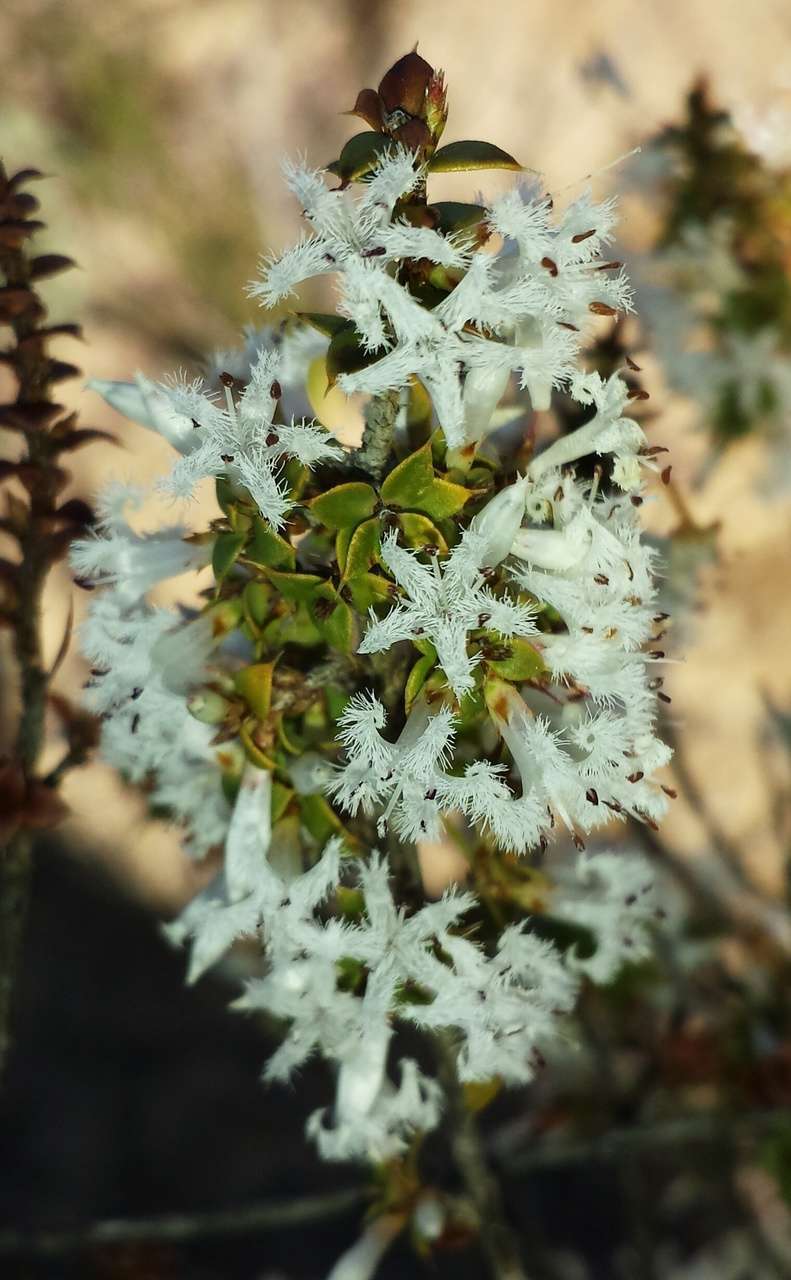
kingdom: Plantae
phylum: Tracheophyta
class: Magnoliopsida
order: Ericales
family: Ericaceae
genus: Styphelia
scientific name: Styphelia cordifolia
